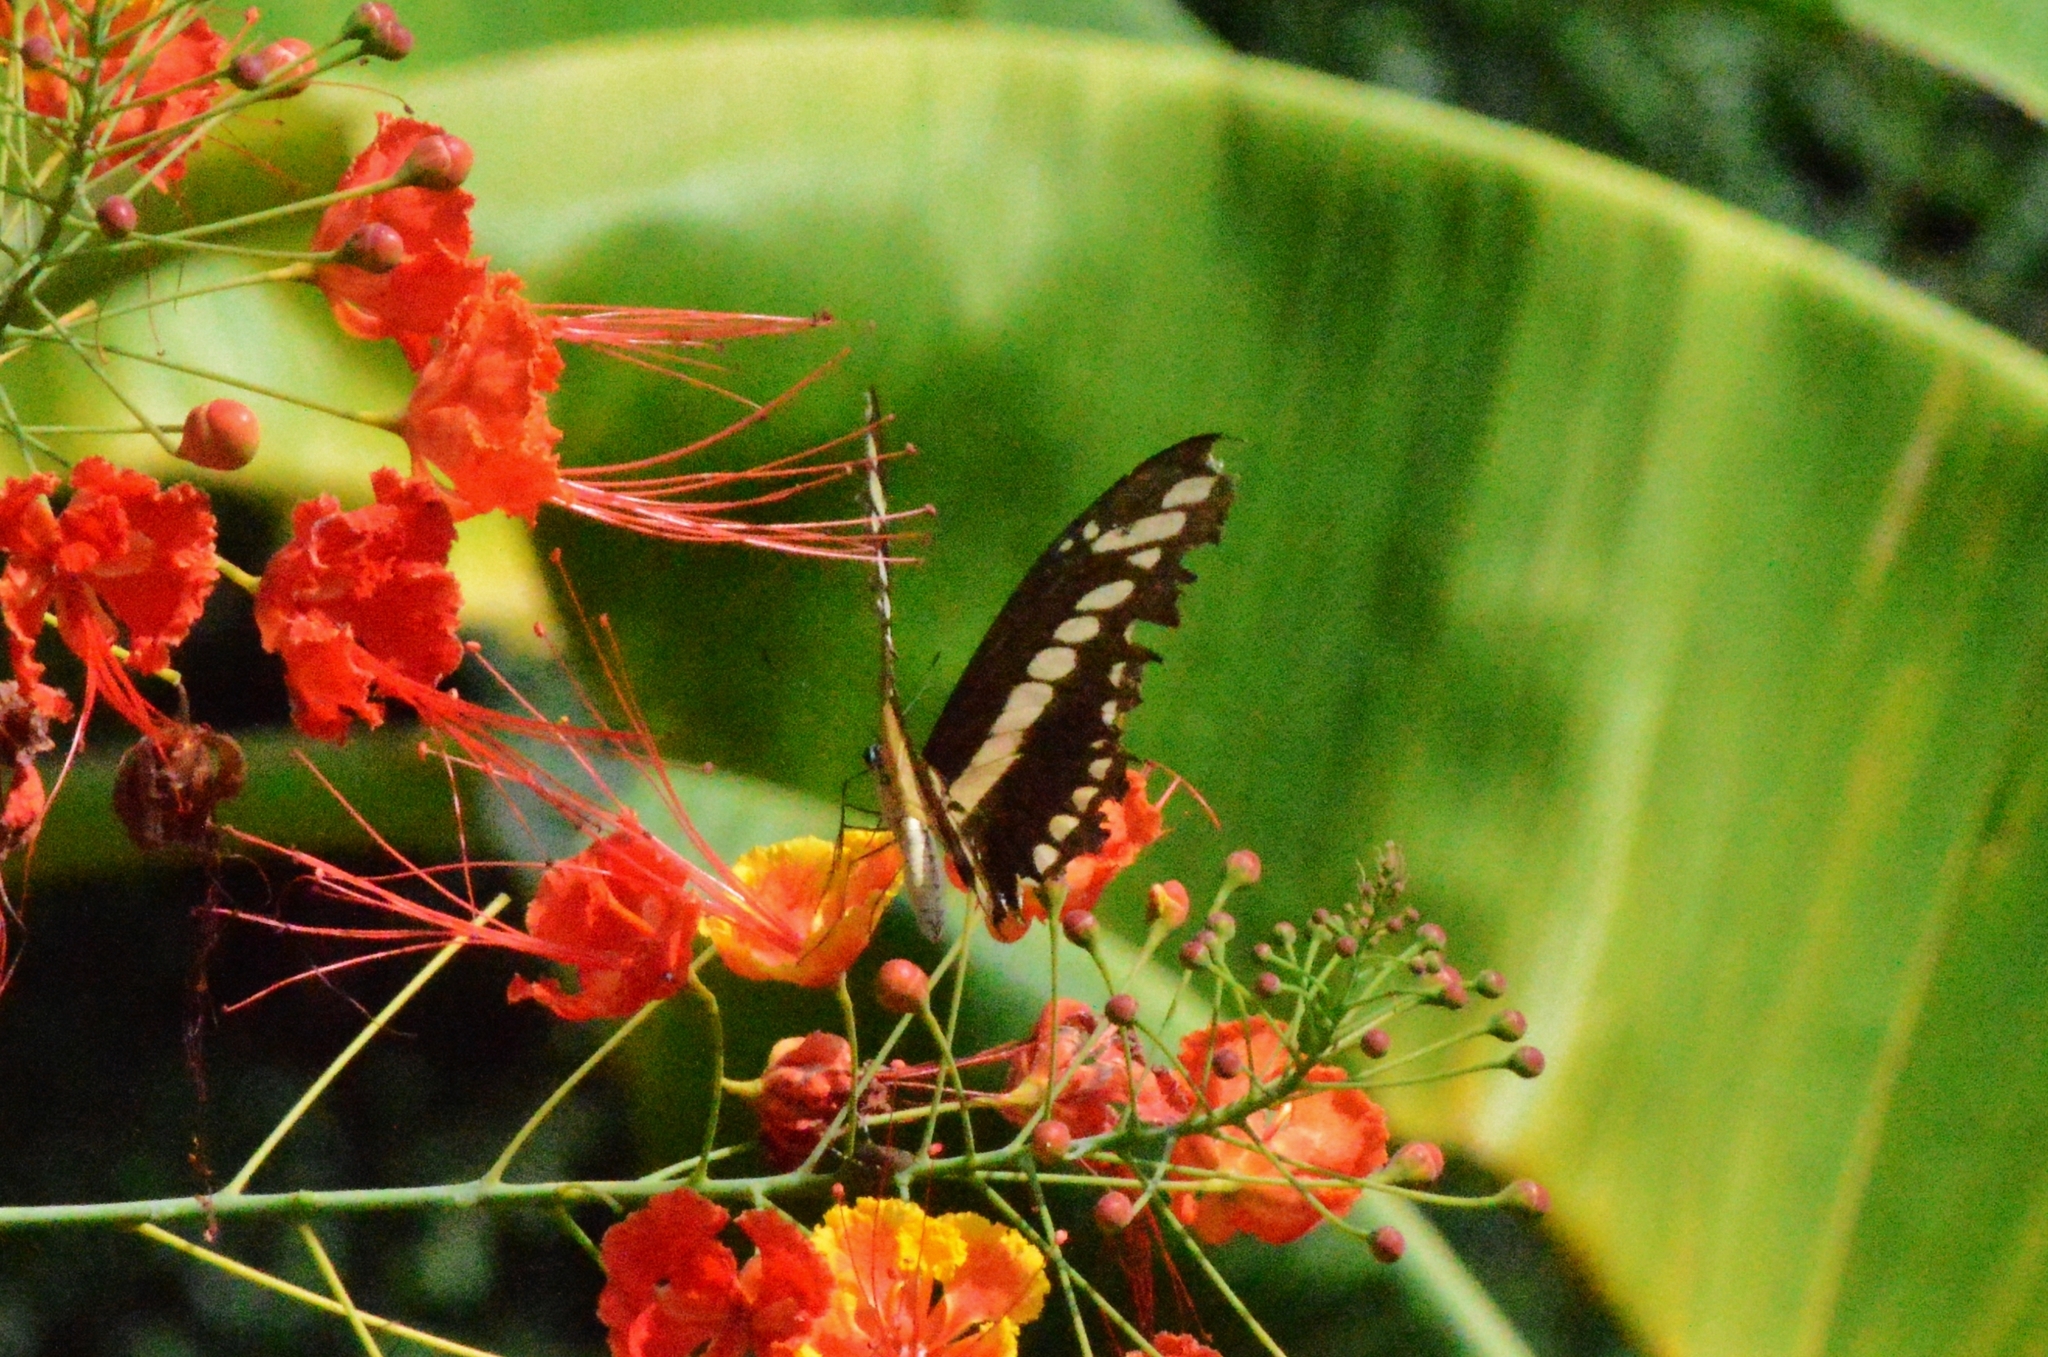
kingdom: Animalia
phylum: Arthropoda
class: Insecta
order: Lepidoptera
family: Papilionidae
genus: Papilio
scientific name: Papilio thoas
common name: King swallowtail
